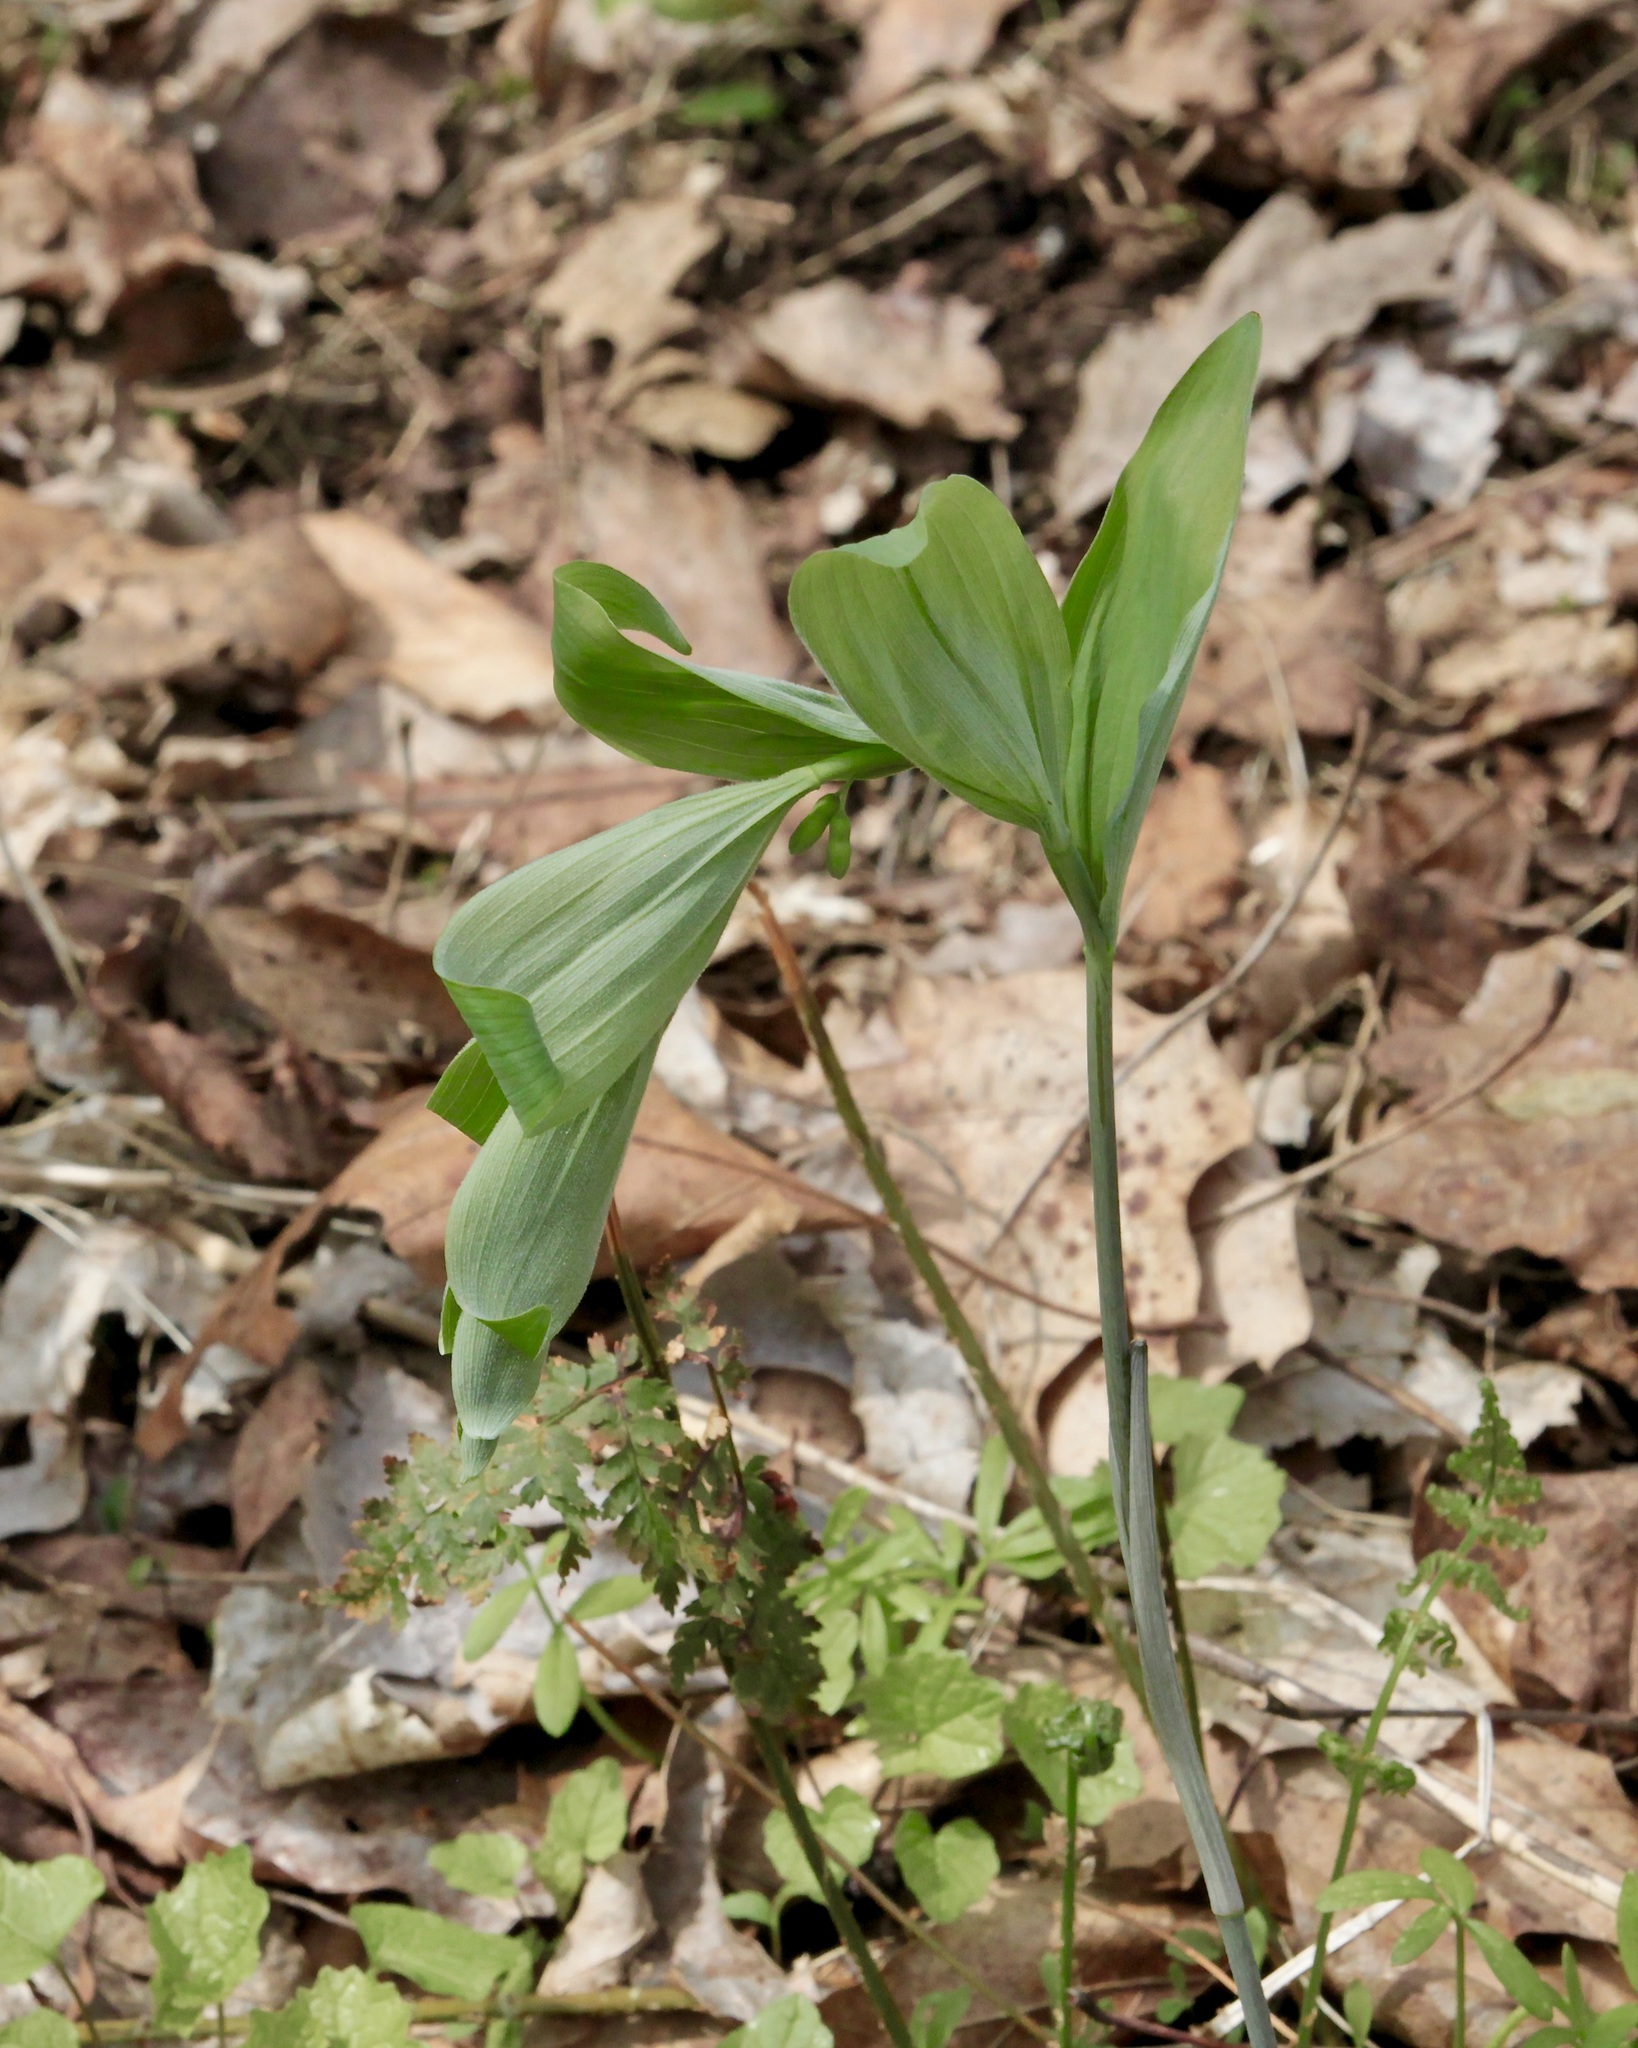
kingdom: Plantae
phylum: Tracheophyta
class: Liliopsida
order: Asparagales
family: Asparagaceae
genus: Polygonatum
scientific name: Polygonatum pubescens
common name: Downy solomon's seal
